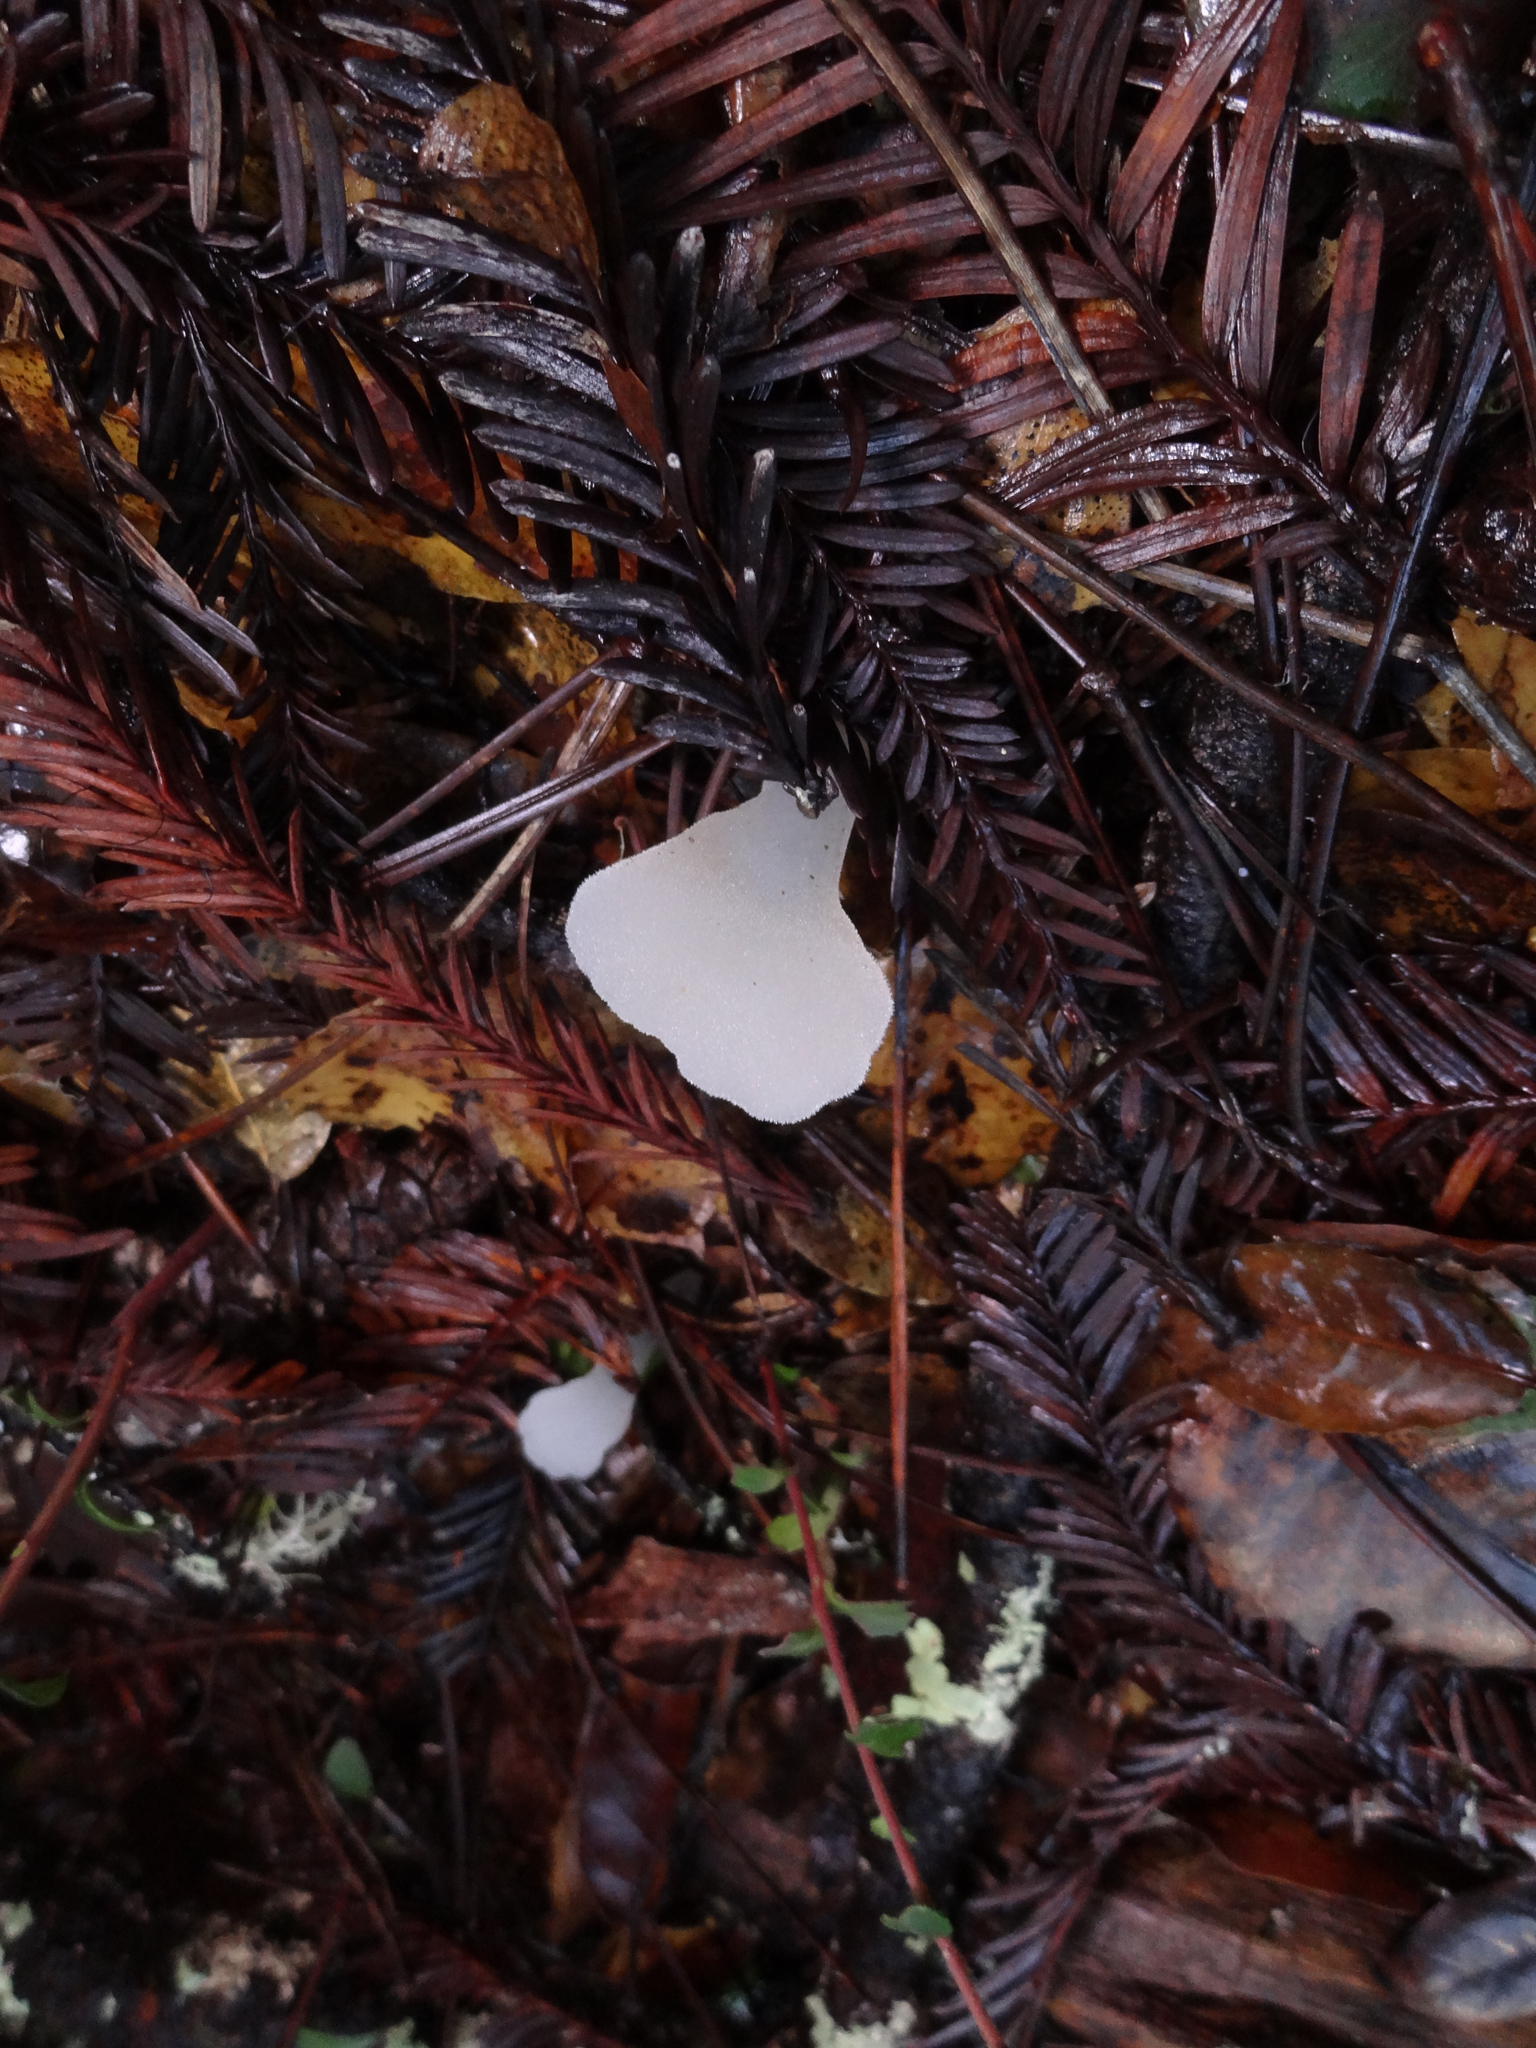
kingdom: Fungi
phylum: Basidiomycota
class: Agaricomycetes
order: Auriculariales
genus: Pseudohydnum
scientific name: Pseudohydnum gelatinosum
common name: Jelly tongue
